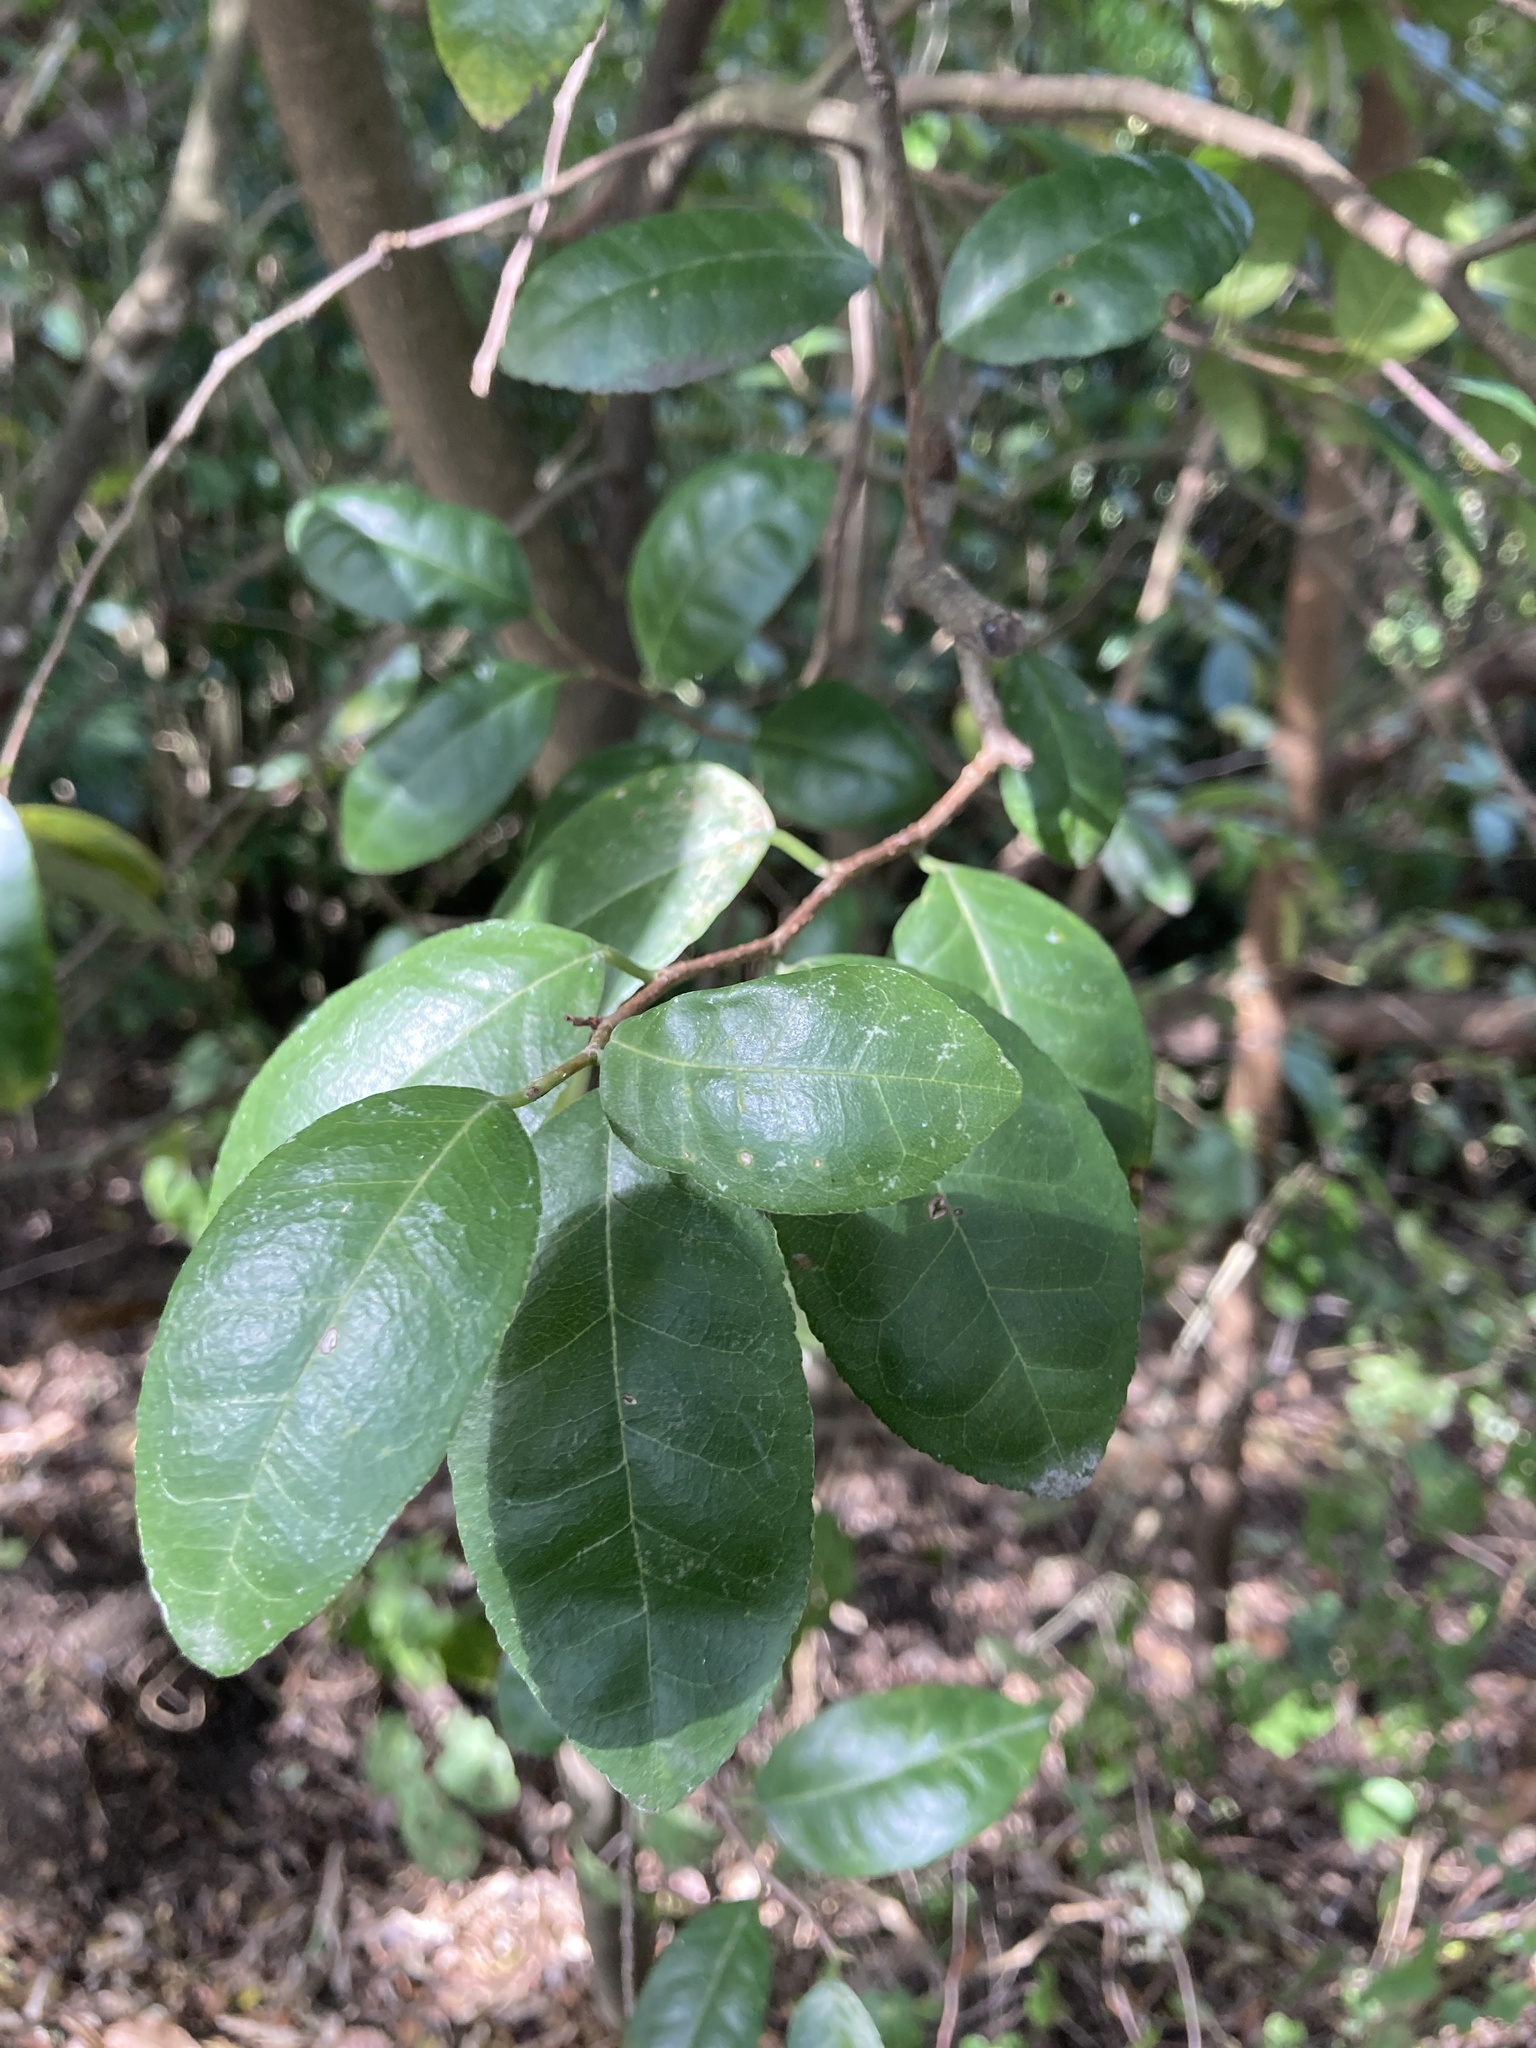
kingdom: Plantae
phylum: Tracheophyta
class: Magnoliopsida
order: Rosales
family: Moraceae
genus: Paratrophis
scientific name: Paratrophis banksii
